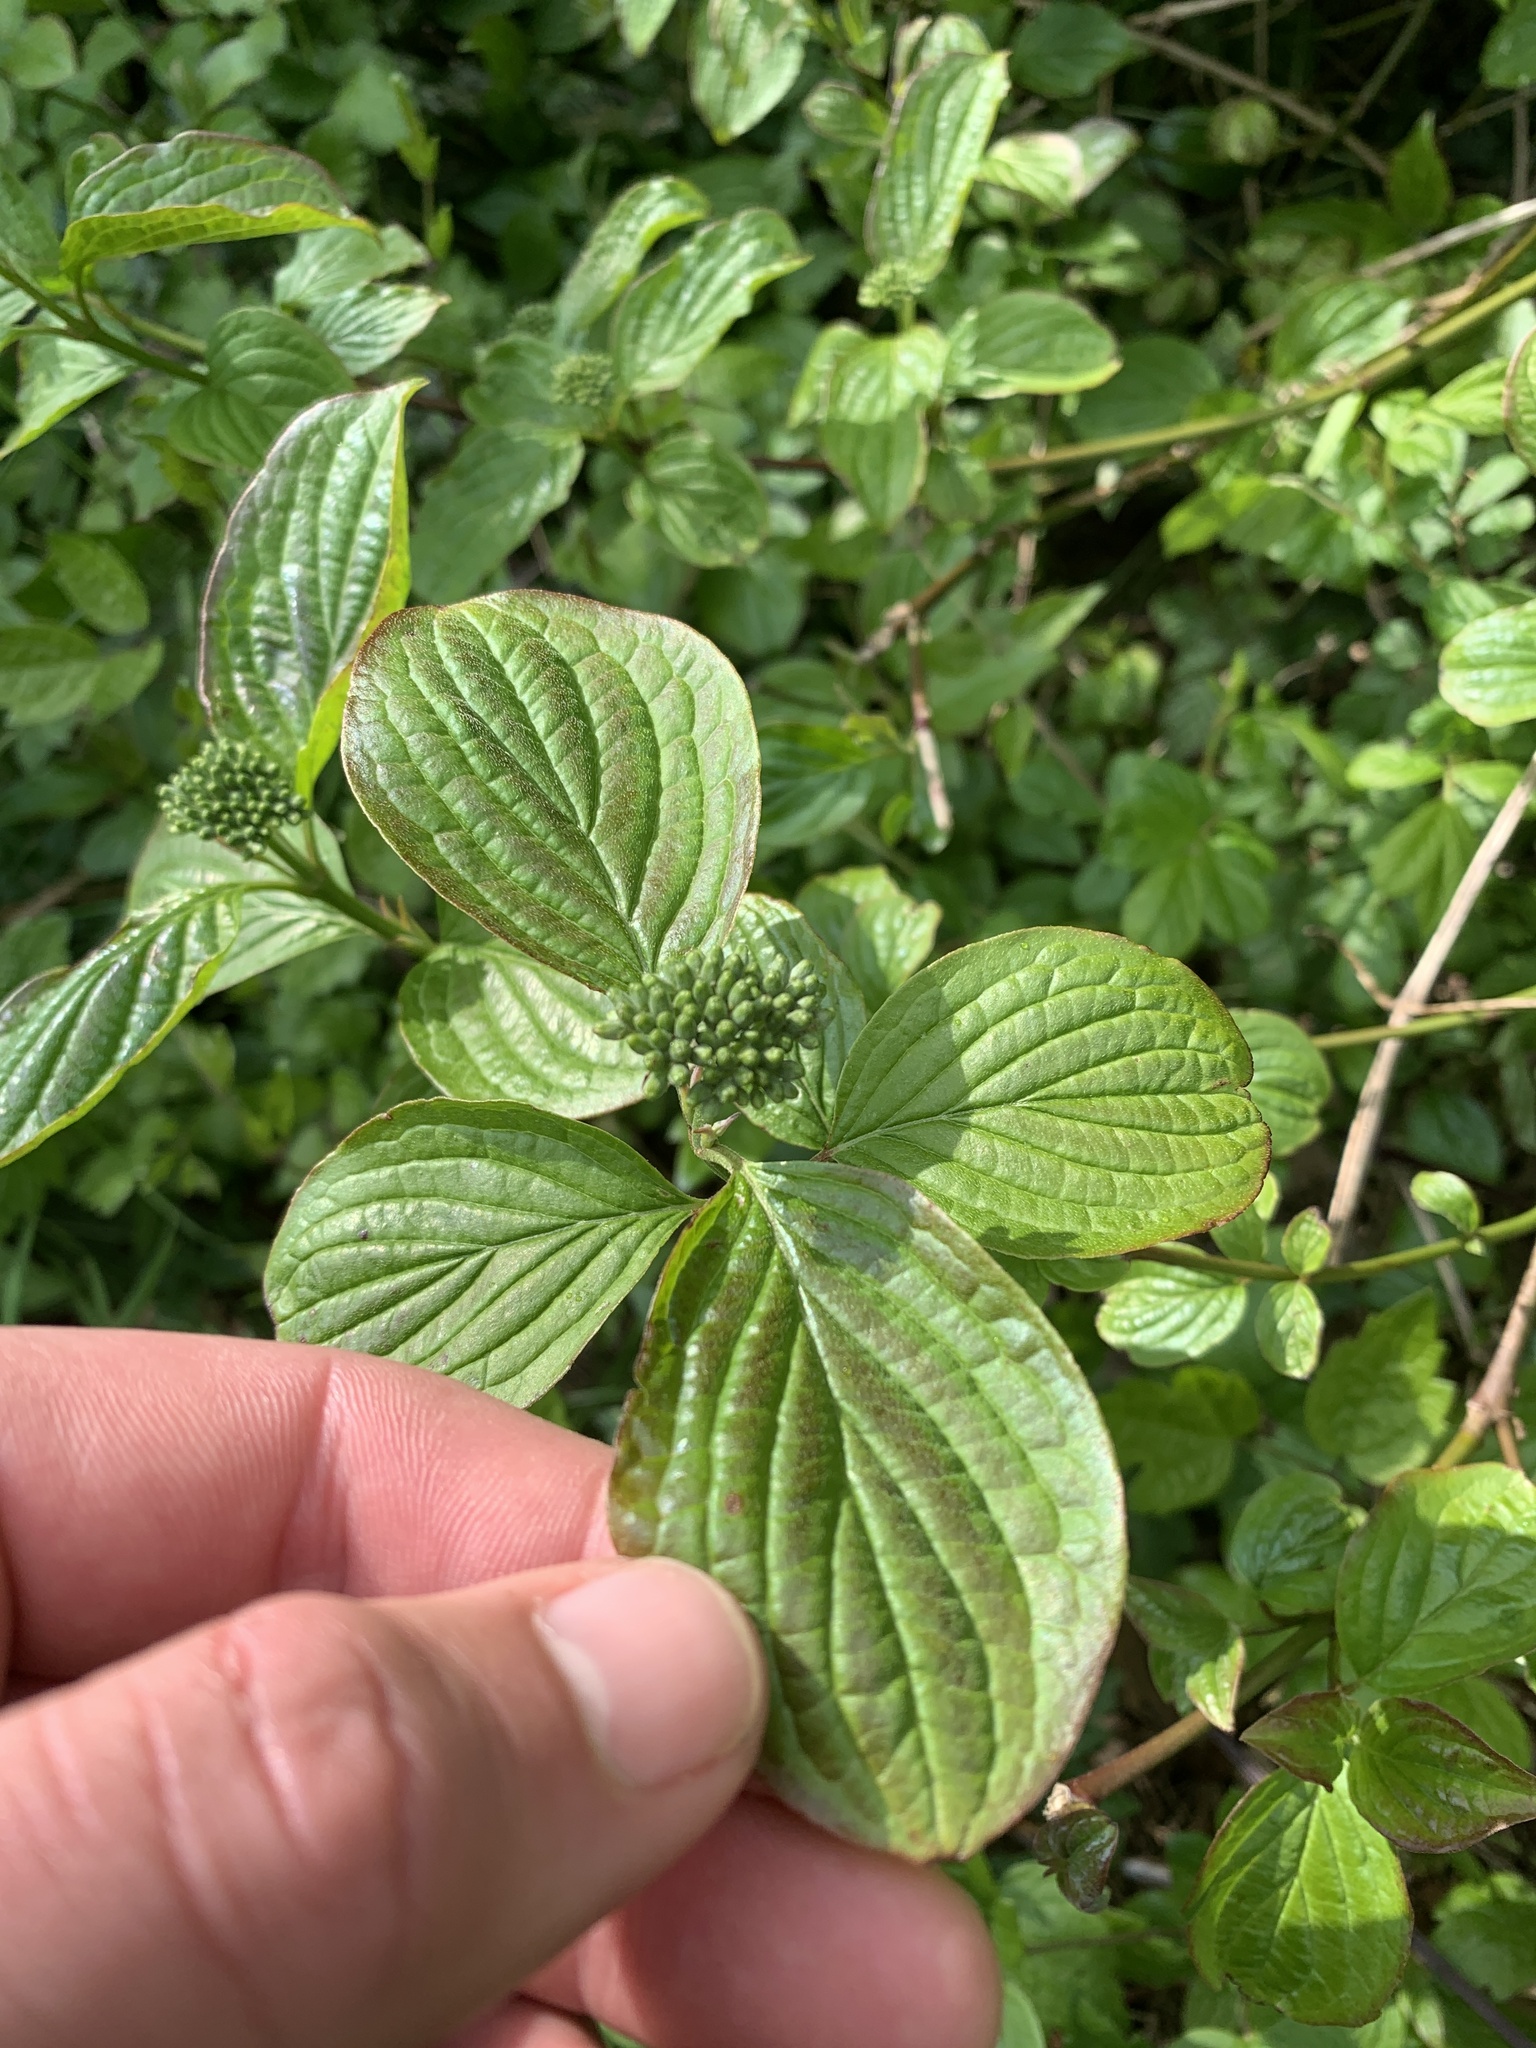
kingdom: Plantae
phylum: Tracheophyta
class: Magnoliopsida
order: Cornales
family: Cornaceae
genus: Cornus
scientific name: Cornus sanguinea
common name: Dogwood
